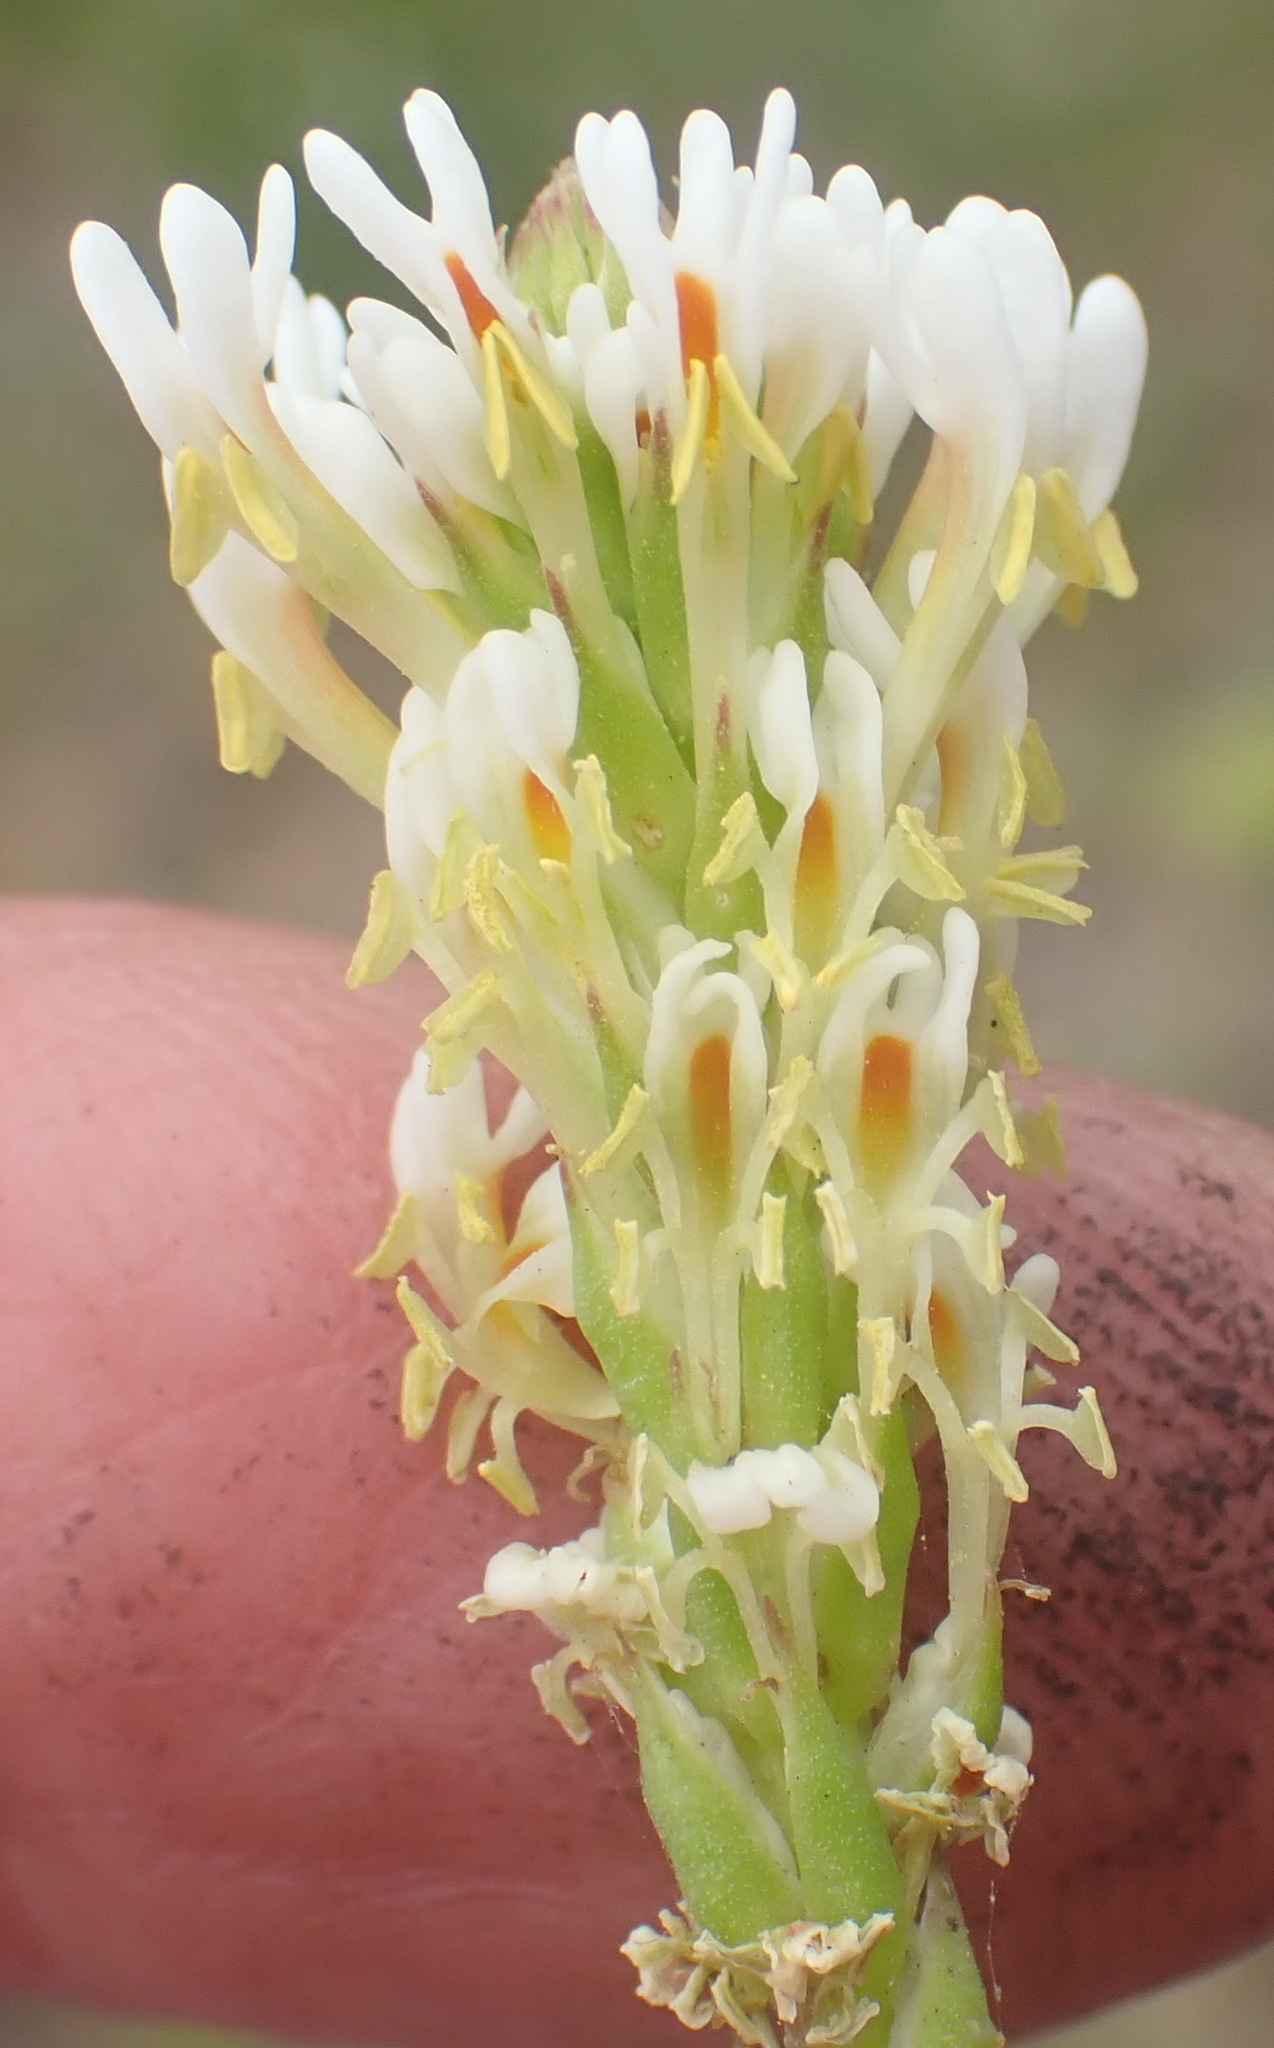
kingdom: Plantae
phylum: Tracheophyta
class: Magnoliopsida
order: Lamiales
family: Scrophulariaceae
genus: Hebenstretia
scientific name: Hebenstretia integrifolia
